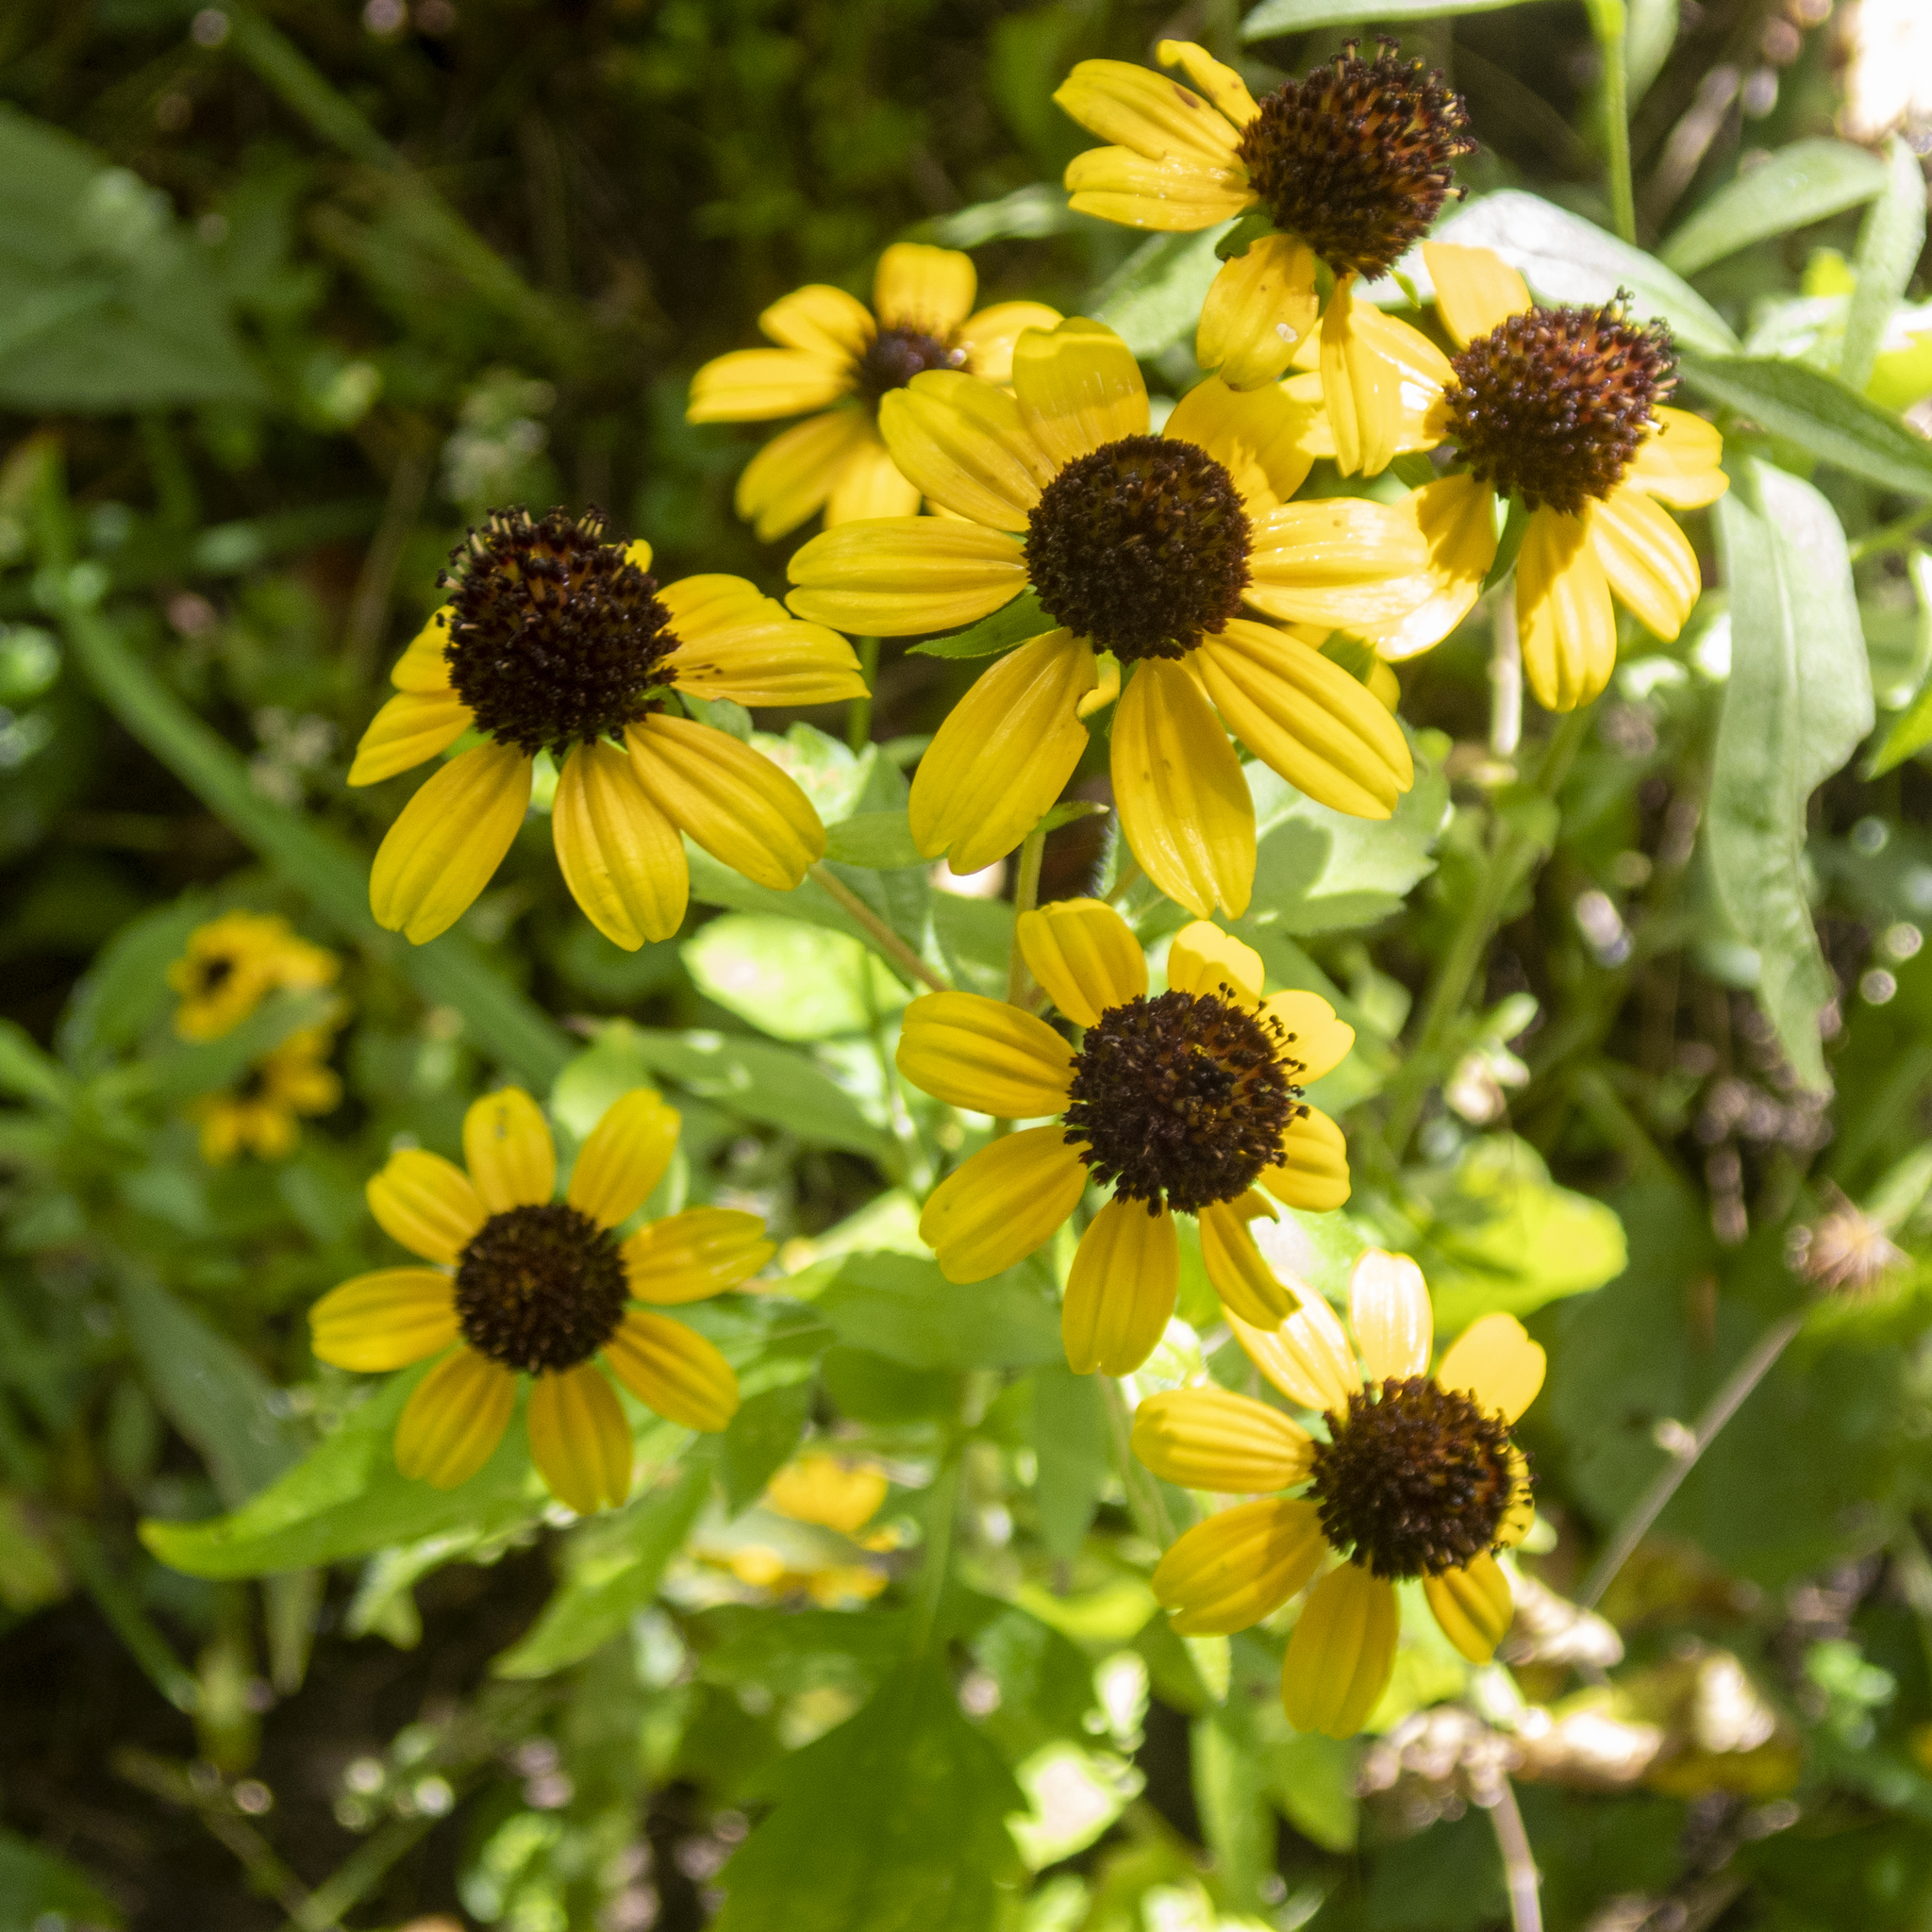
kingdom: Plantae
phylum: Tracheophyta
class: Magnoliopsida
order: Asterales
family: Asteraceae
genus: Rudbeckia
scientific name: Rudbeckia triloba
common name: Thin-leaved coneflower
